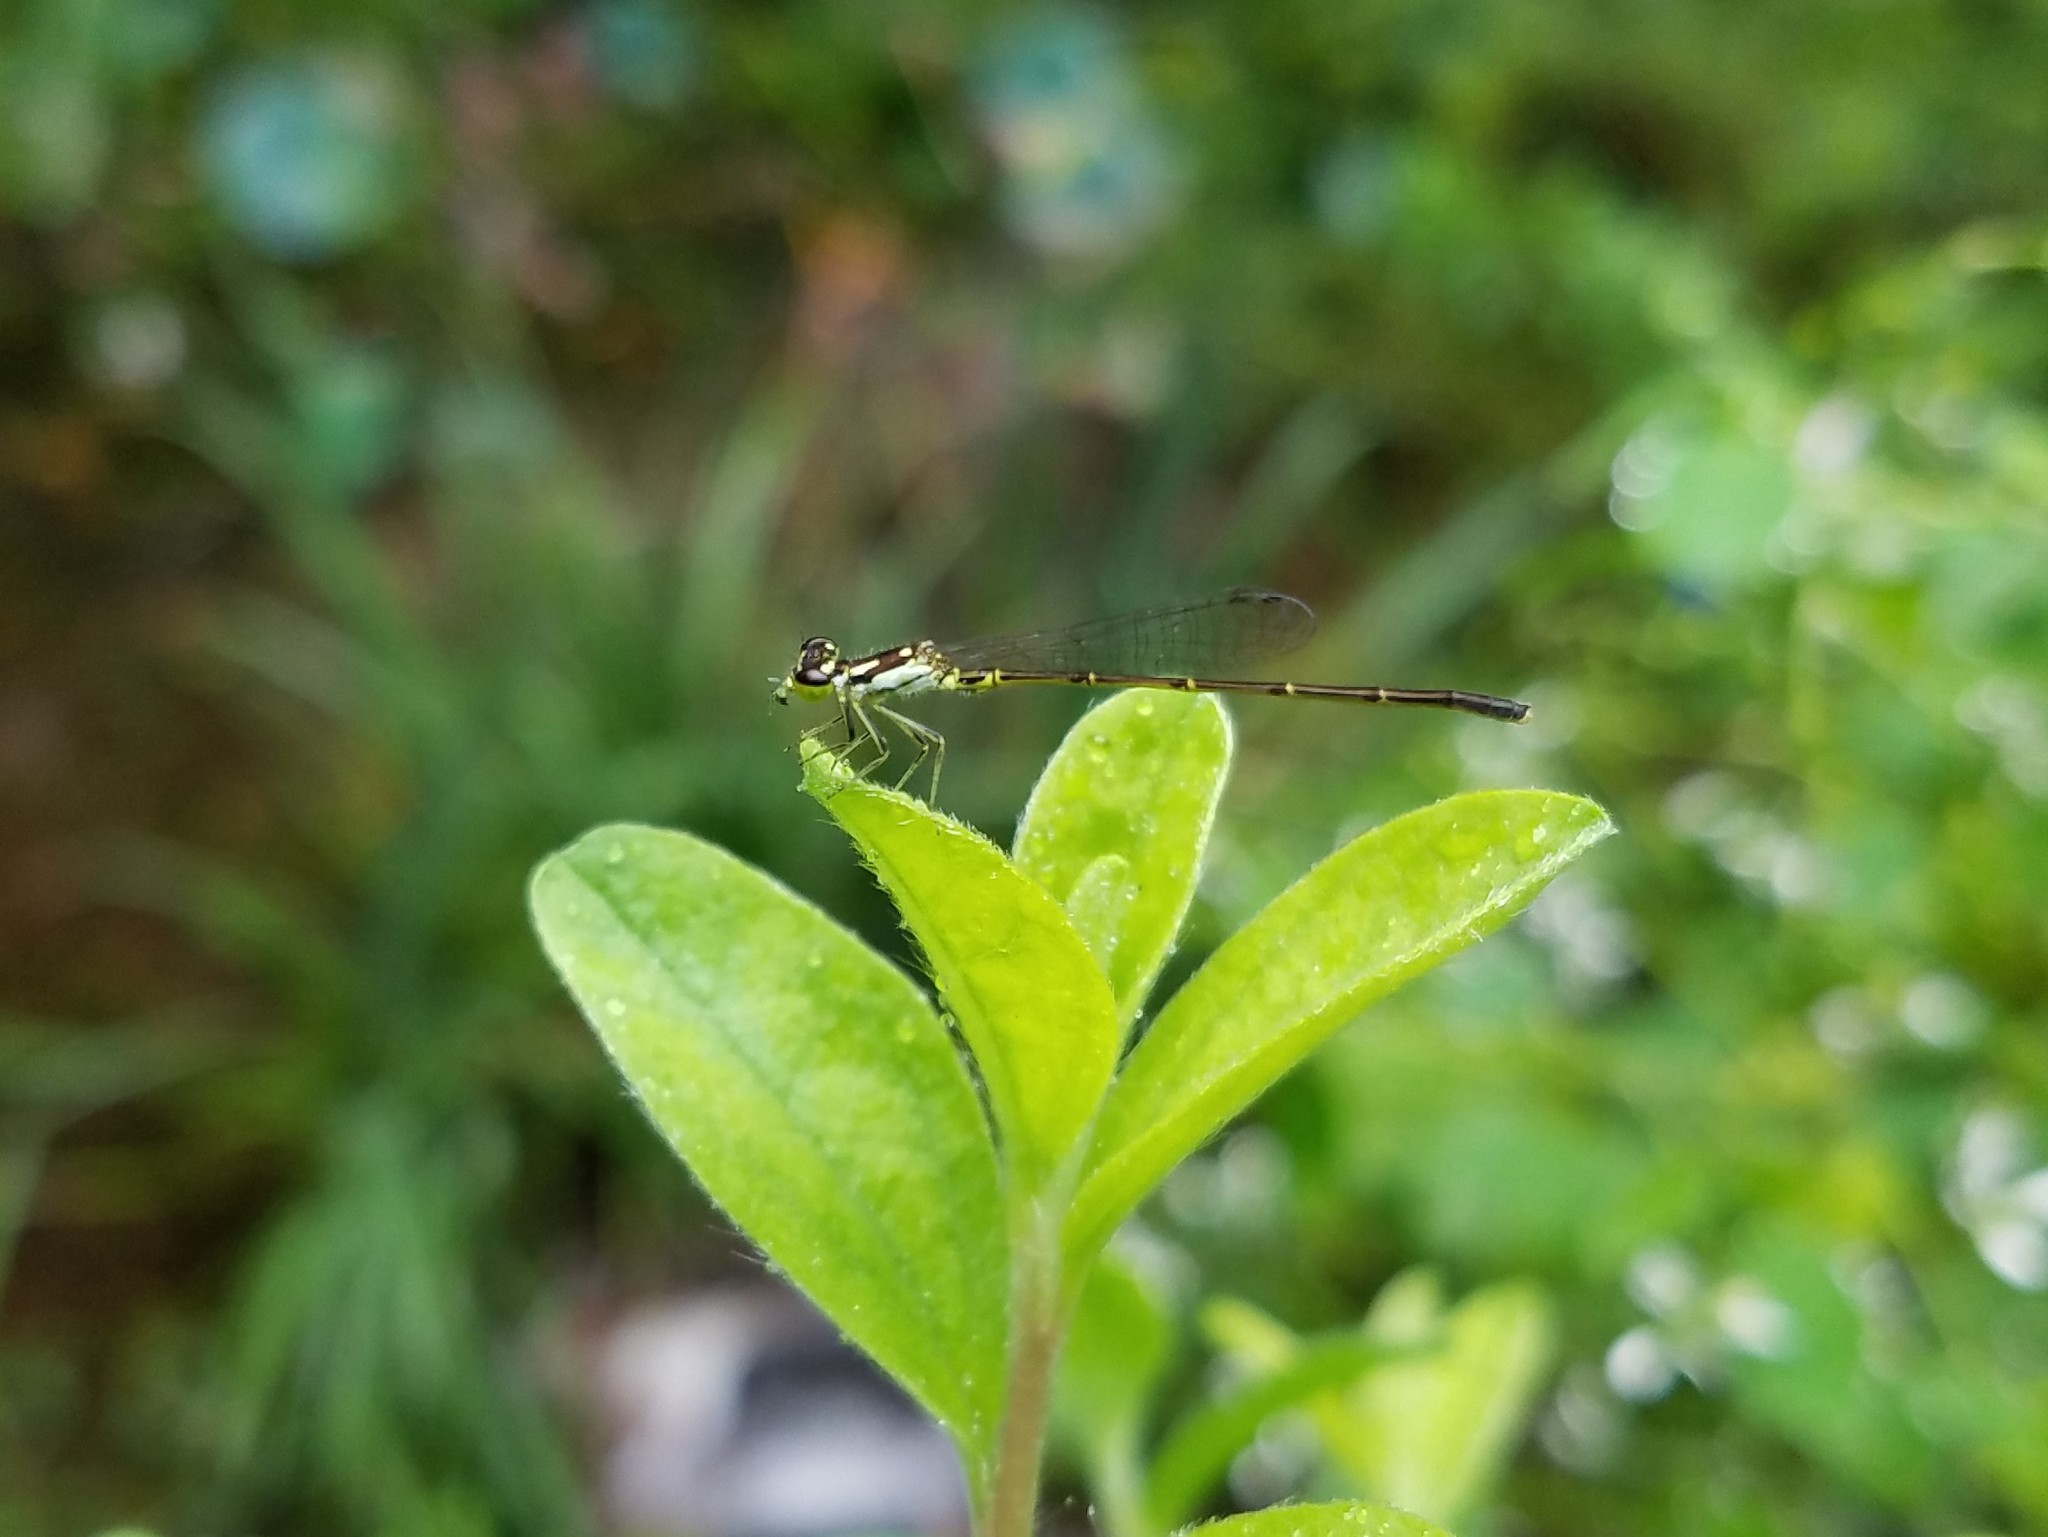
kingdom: Animalia
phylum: Arthropoda
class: Insecta
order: Odonata
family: Coenagrionidae
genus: Ischnura
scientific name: Ischnura posita
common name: Fragile forktail
